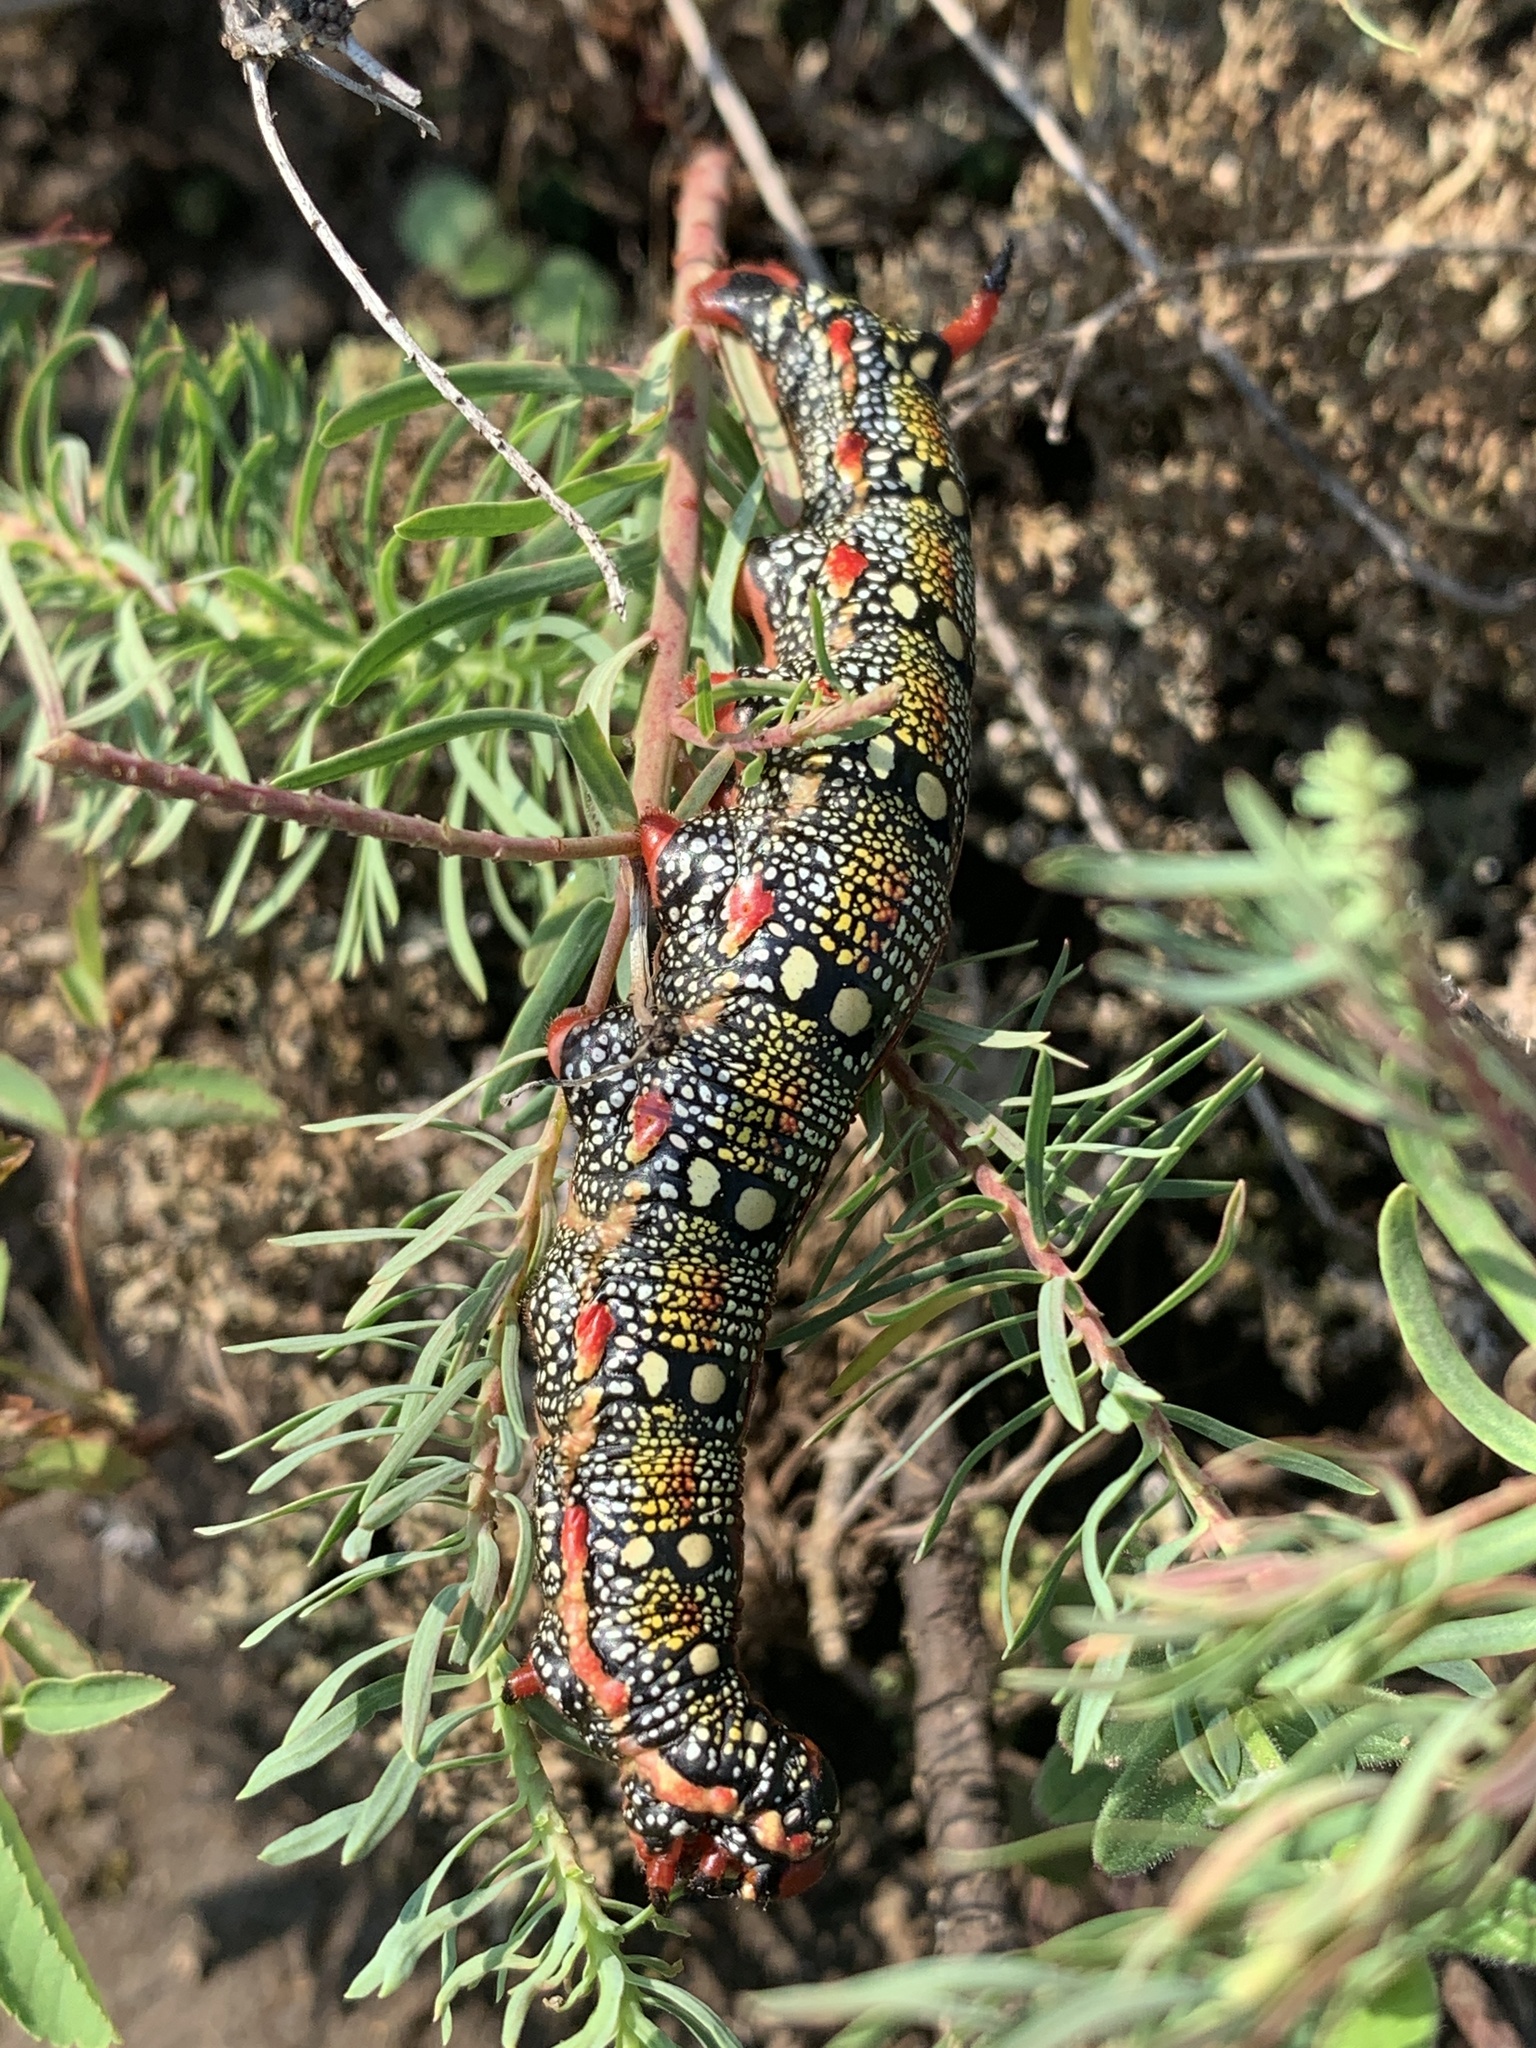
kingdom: Animalia
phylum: Arthropoda
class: Insecta
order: Lepidoptera
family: Sphingidae
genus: Hyles
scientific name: Hyles euphorbiae
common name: Spurge hawk-moth
